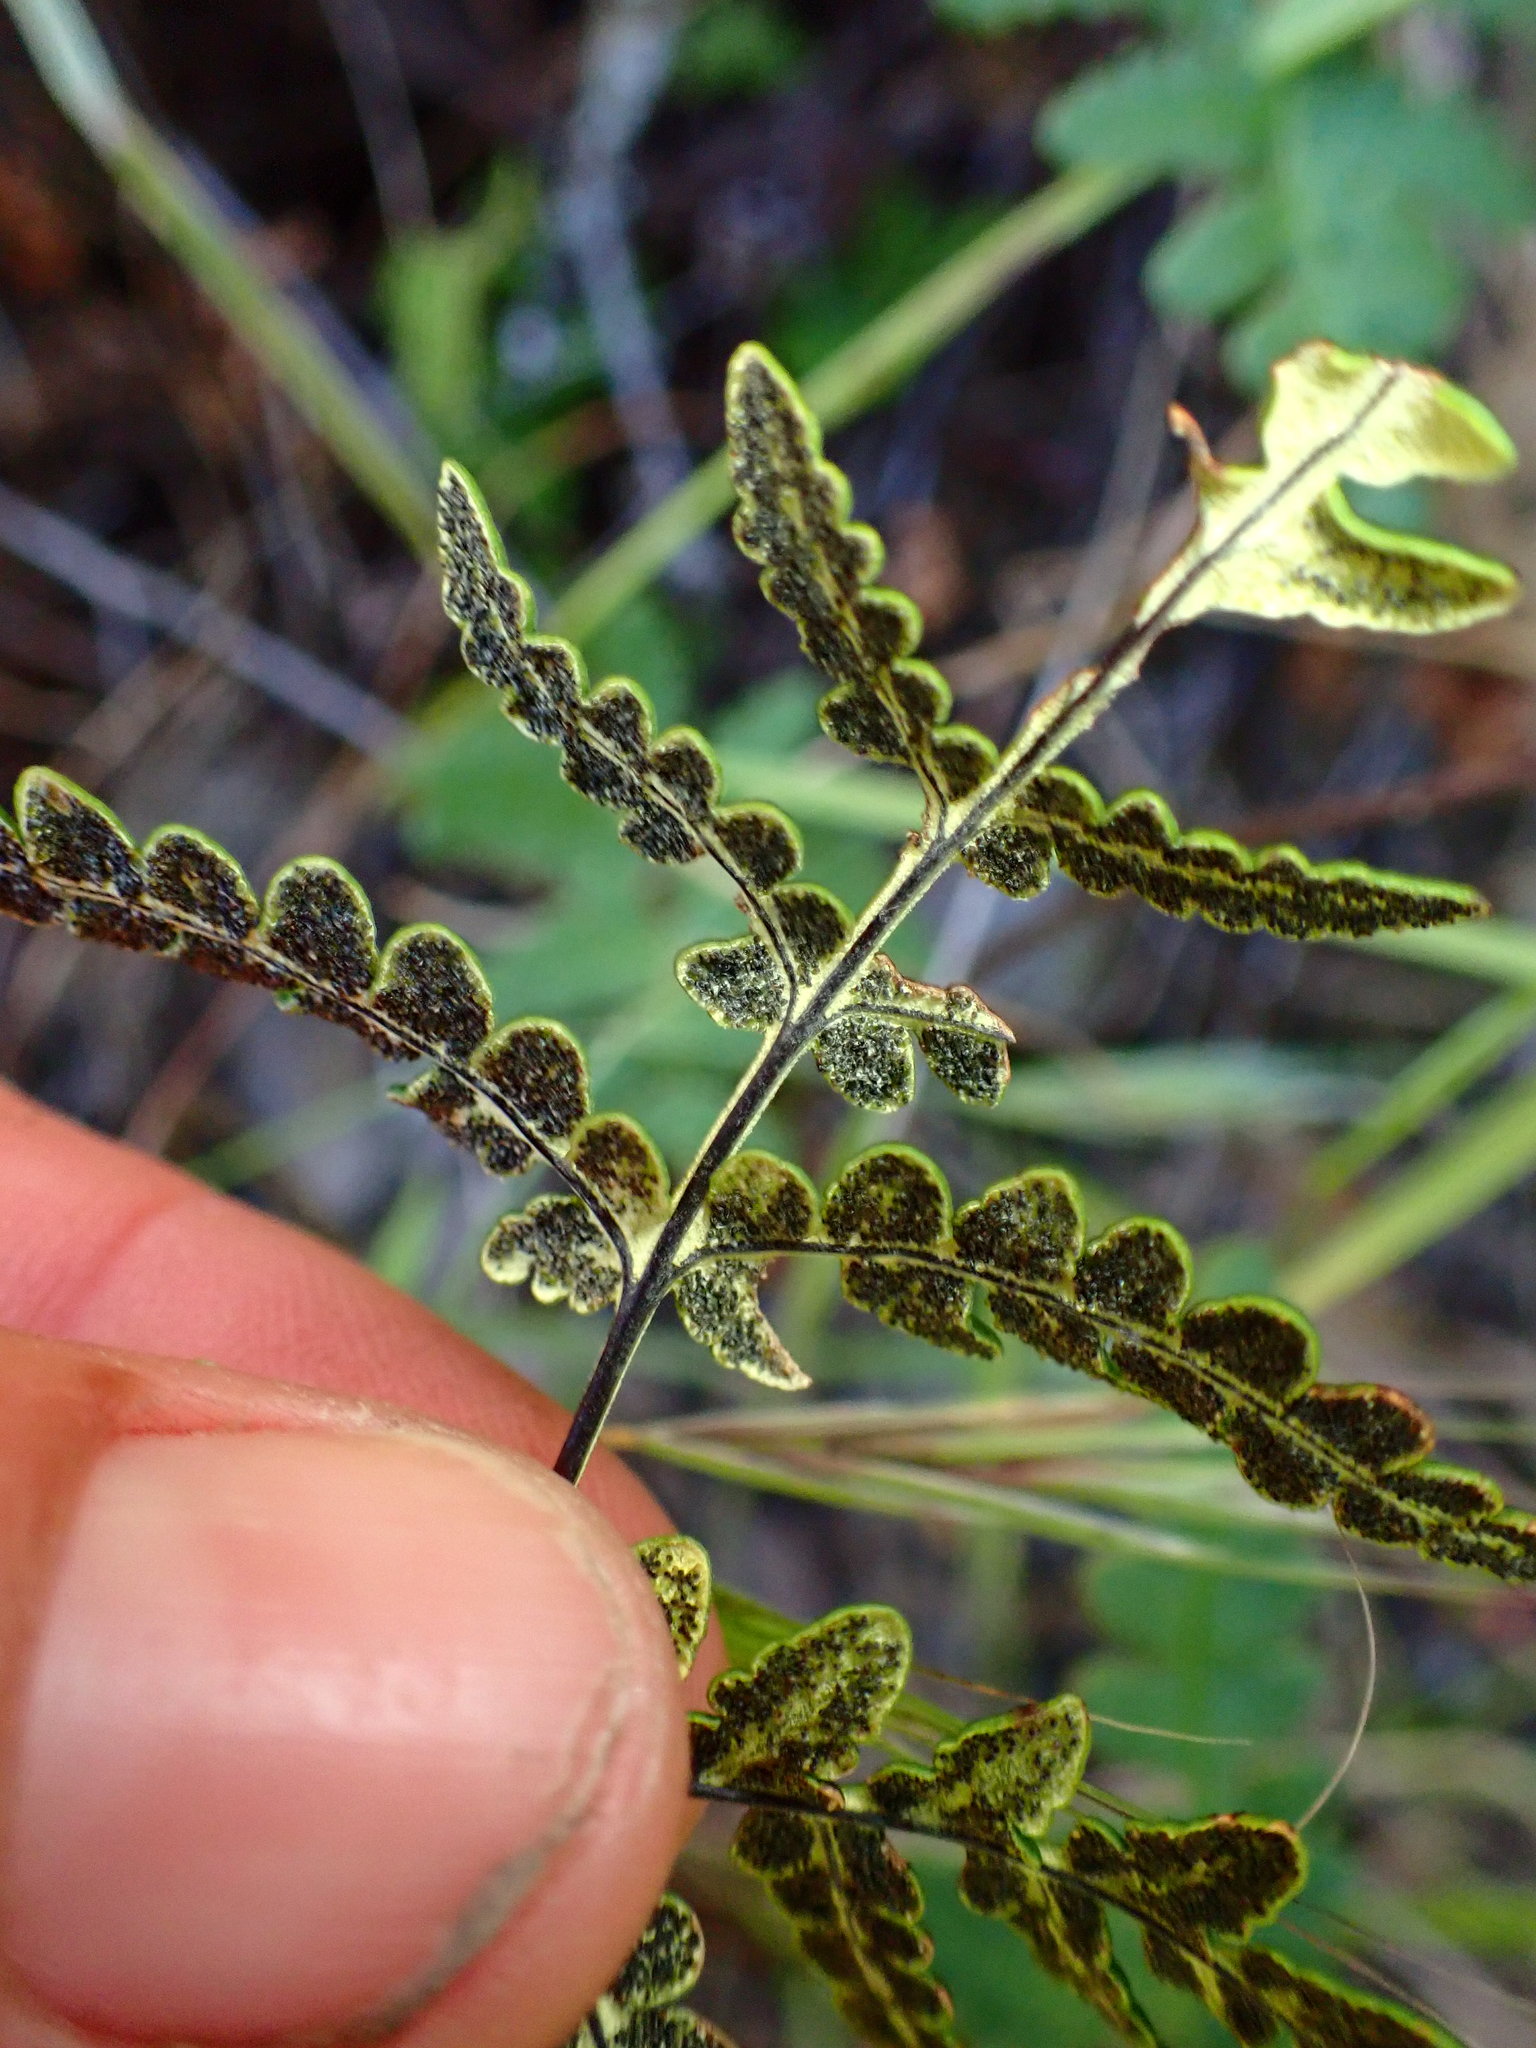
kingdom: Plantae
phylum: Tracheophyta
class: Polypodiopsida
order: Polypodiales
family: Pteridaceae
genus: Pentagramma
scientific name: Pentagramma triangularis
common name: Gold fern
